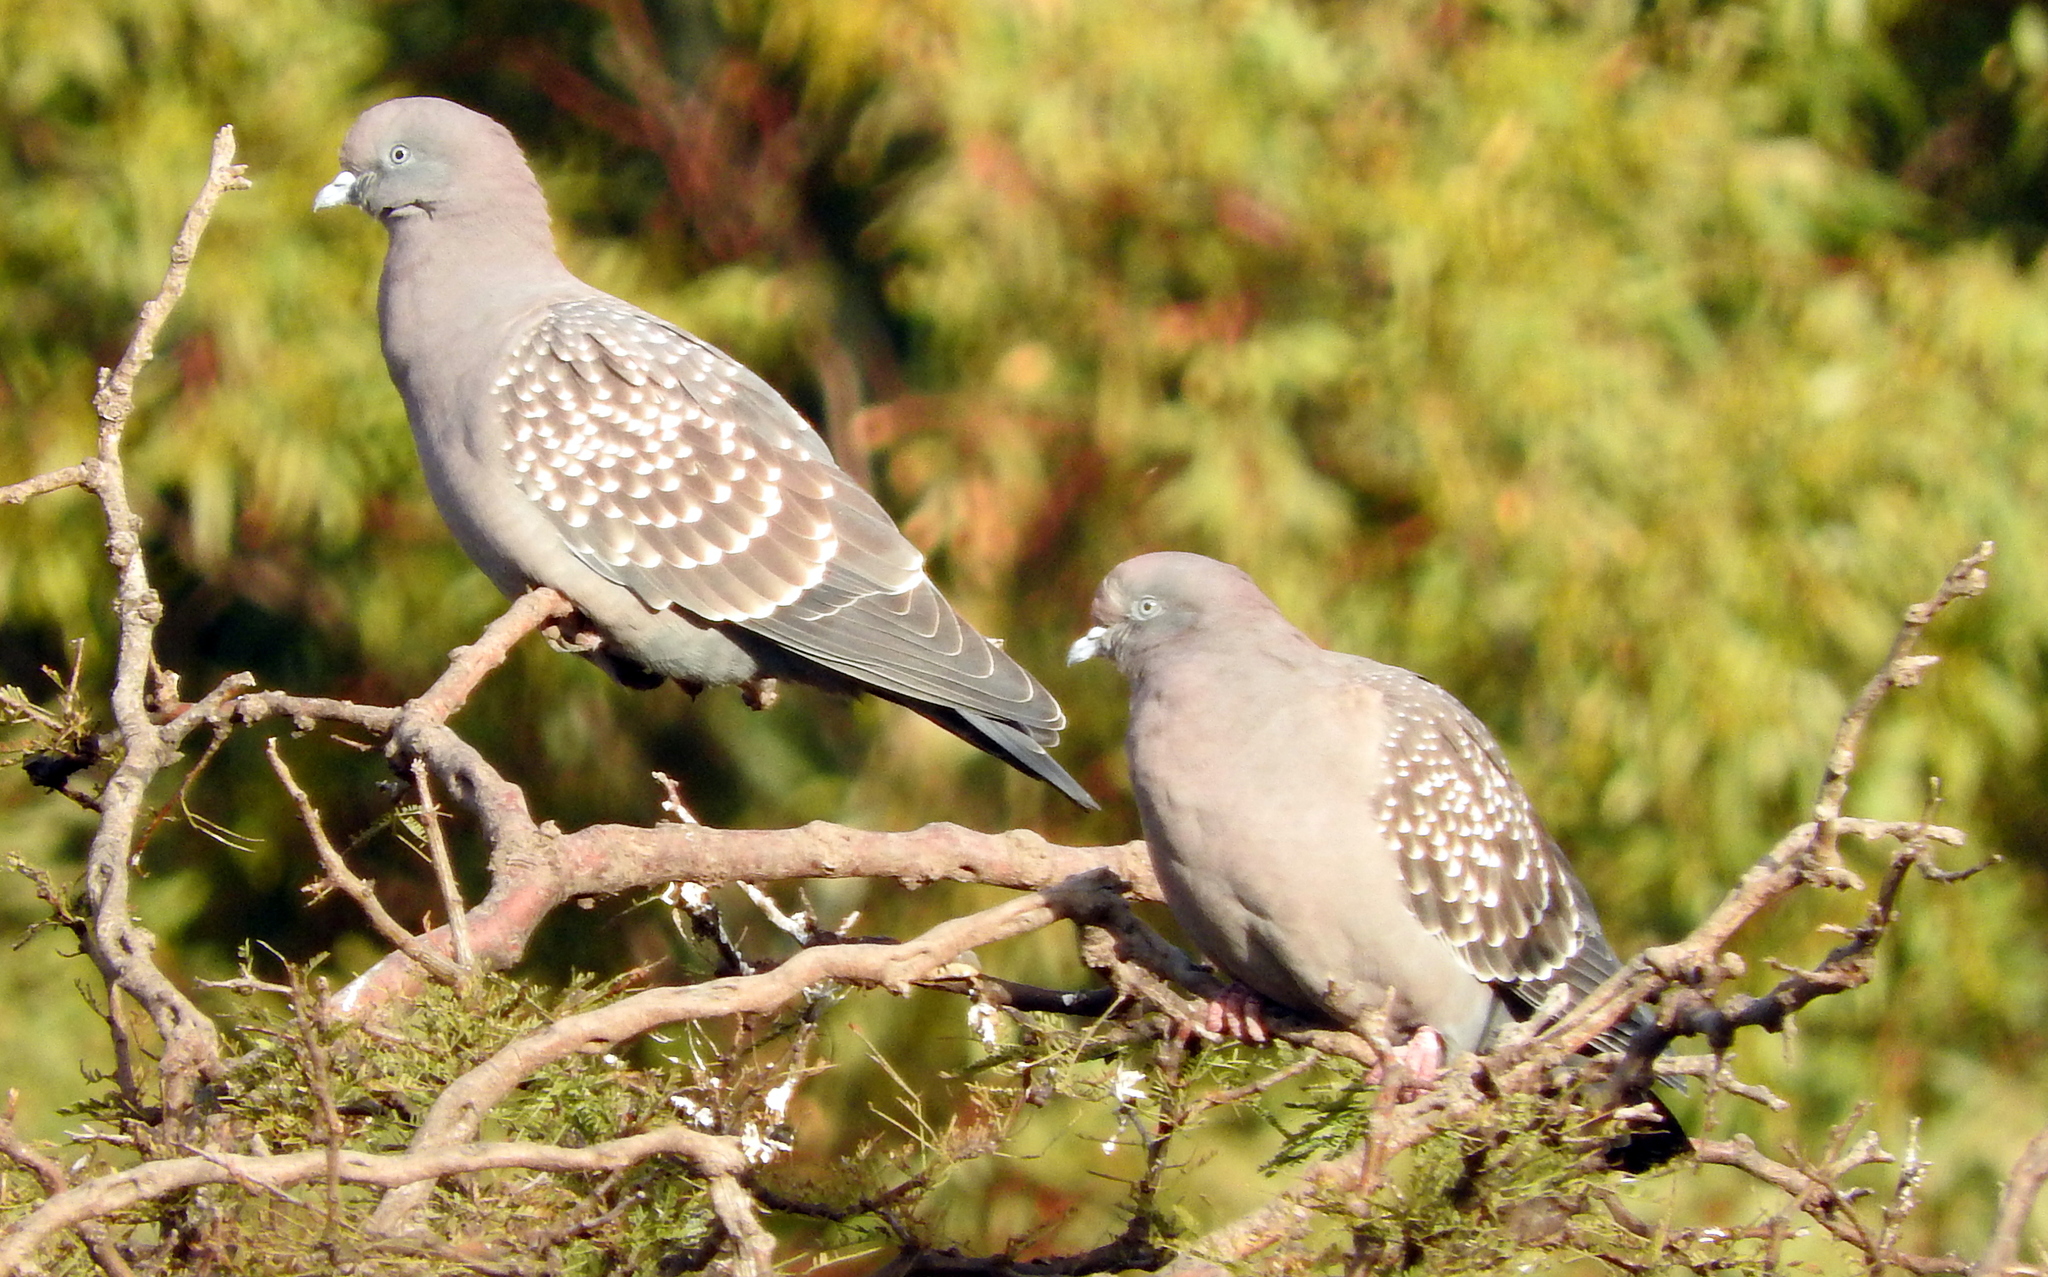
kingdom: Animalia
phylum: Chordata
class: Aves
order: Columbiformes
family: Columbidae
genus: Patagioenas
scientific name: Patagioenas maculosa
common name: Spot-winged pigeon
